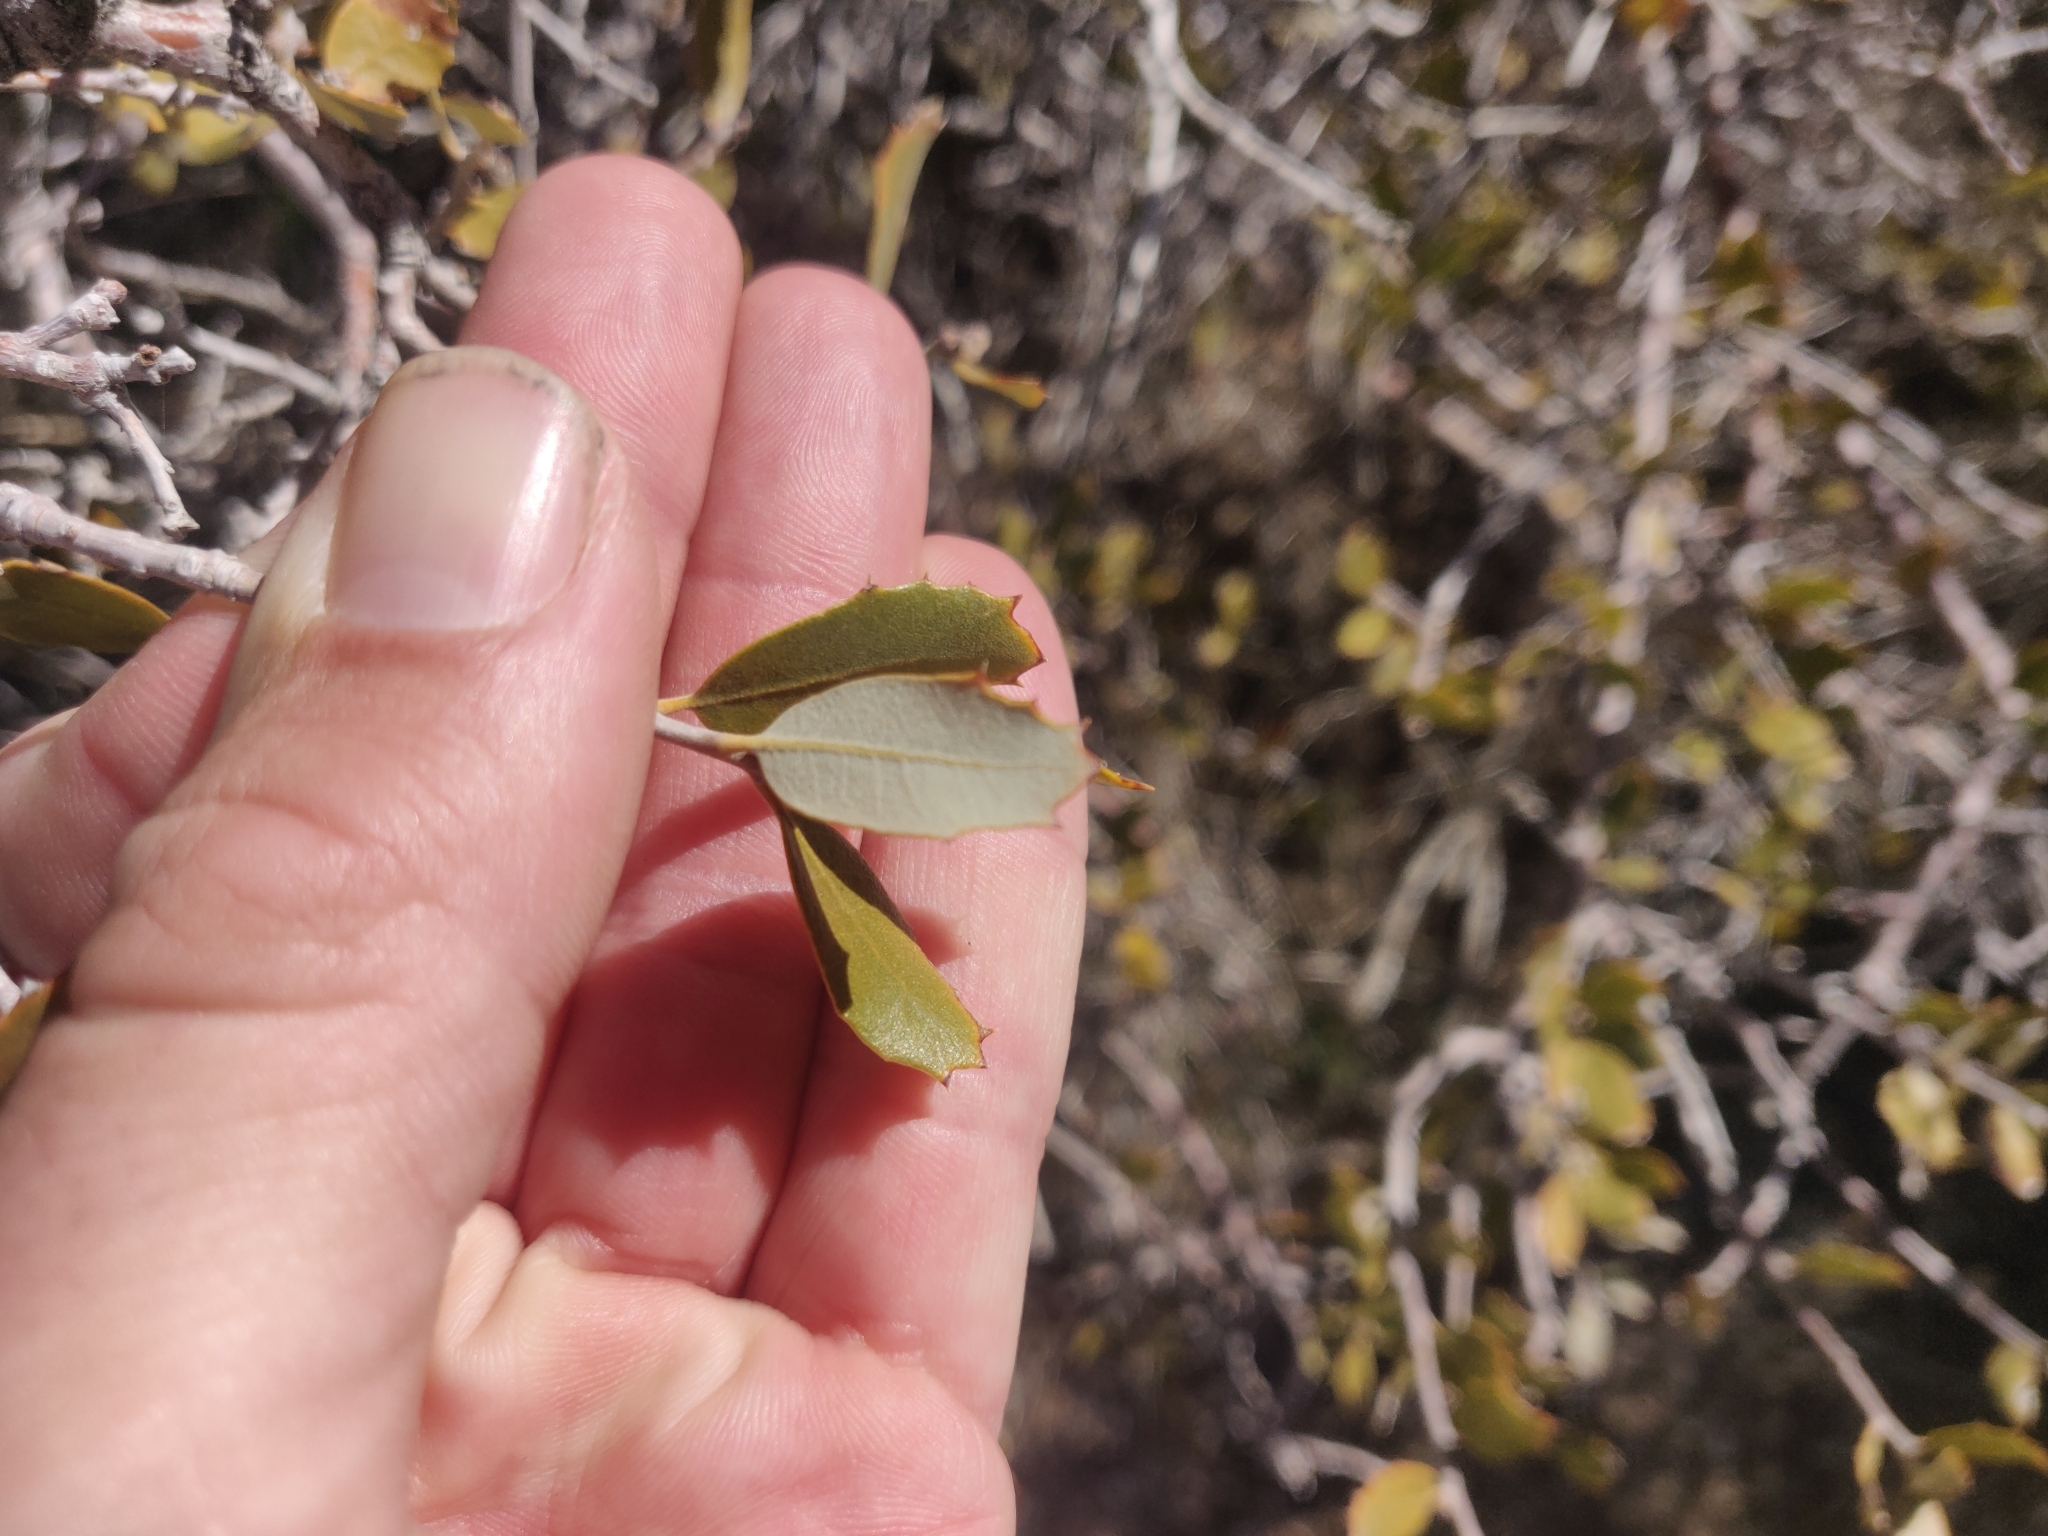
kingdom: Plantae
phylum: Tracheophyta
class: Magnoliopsida
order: Fagales
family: Fagaceae
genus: Quercus
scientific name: Quercus cornelius-mulleri
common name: Muller oak
